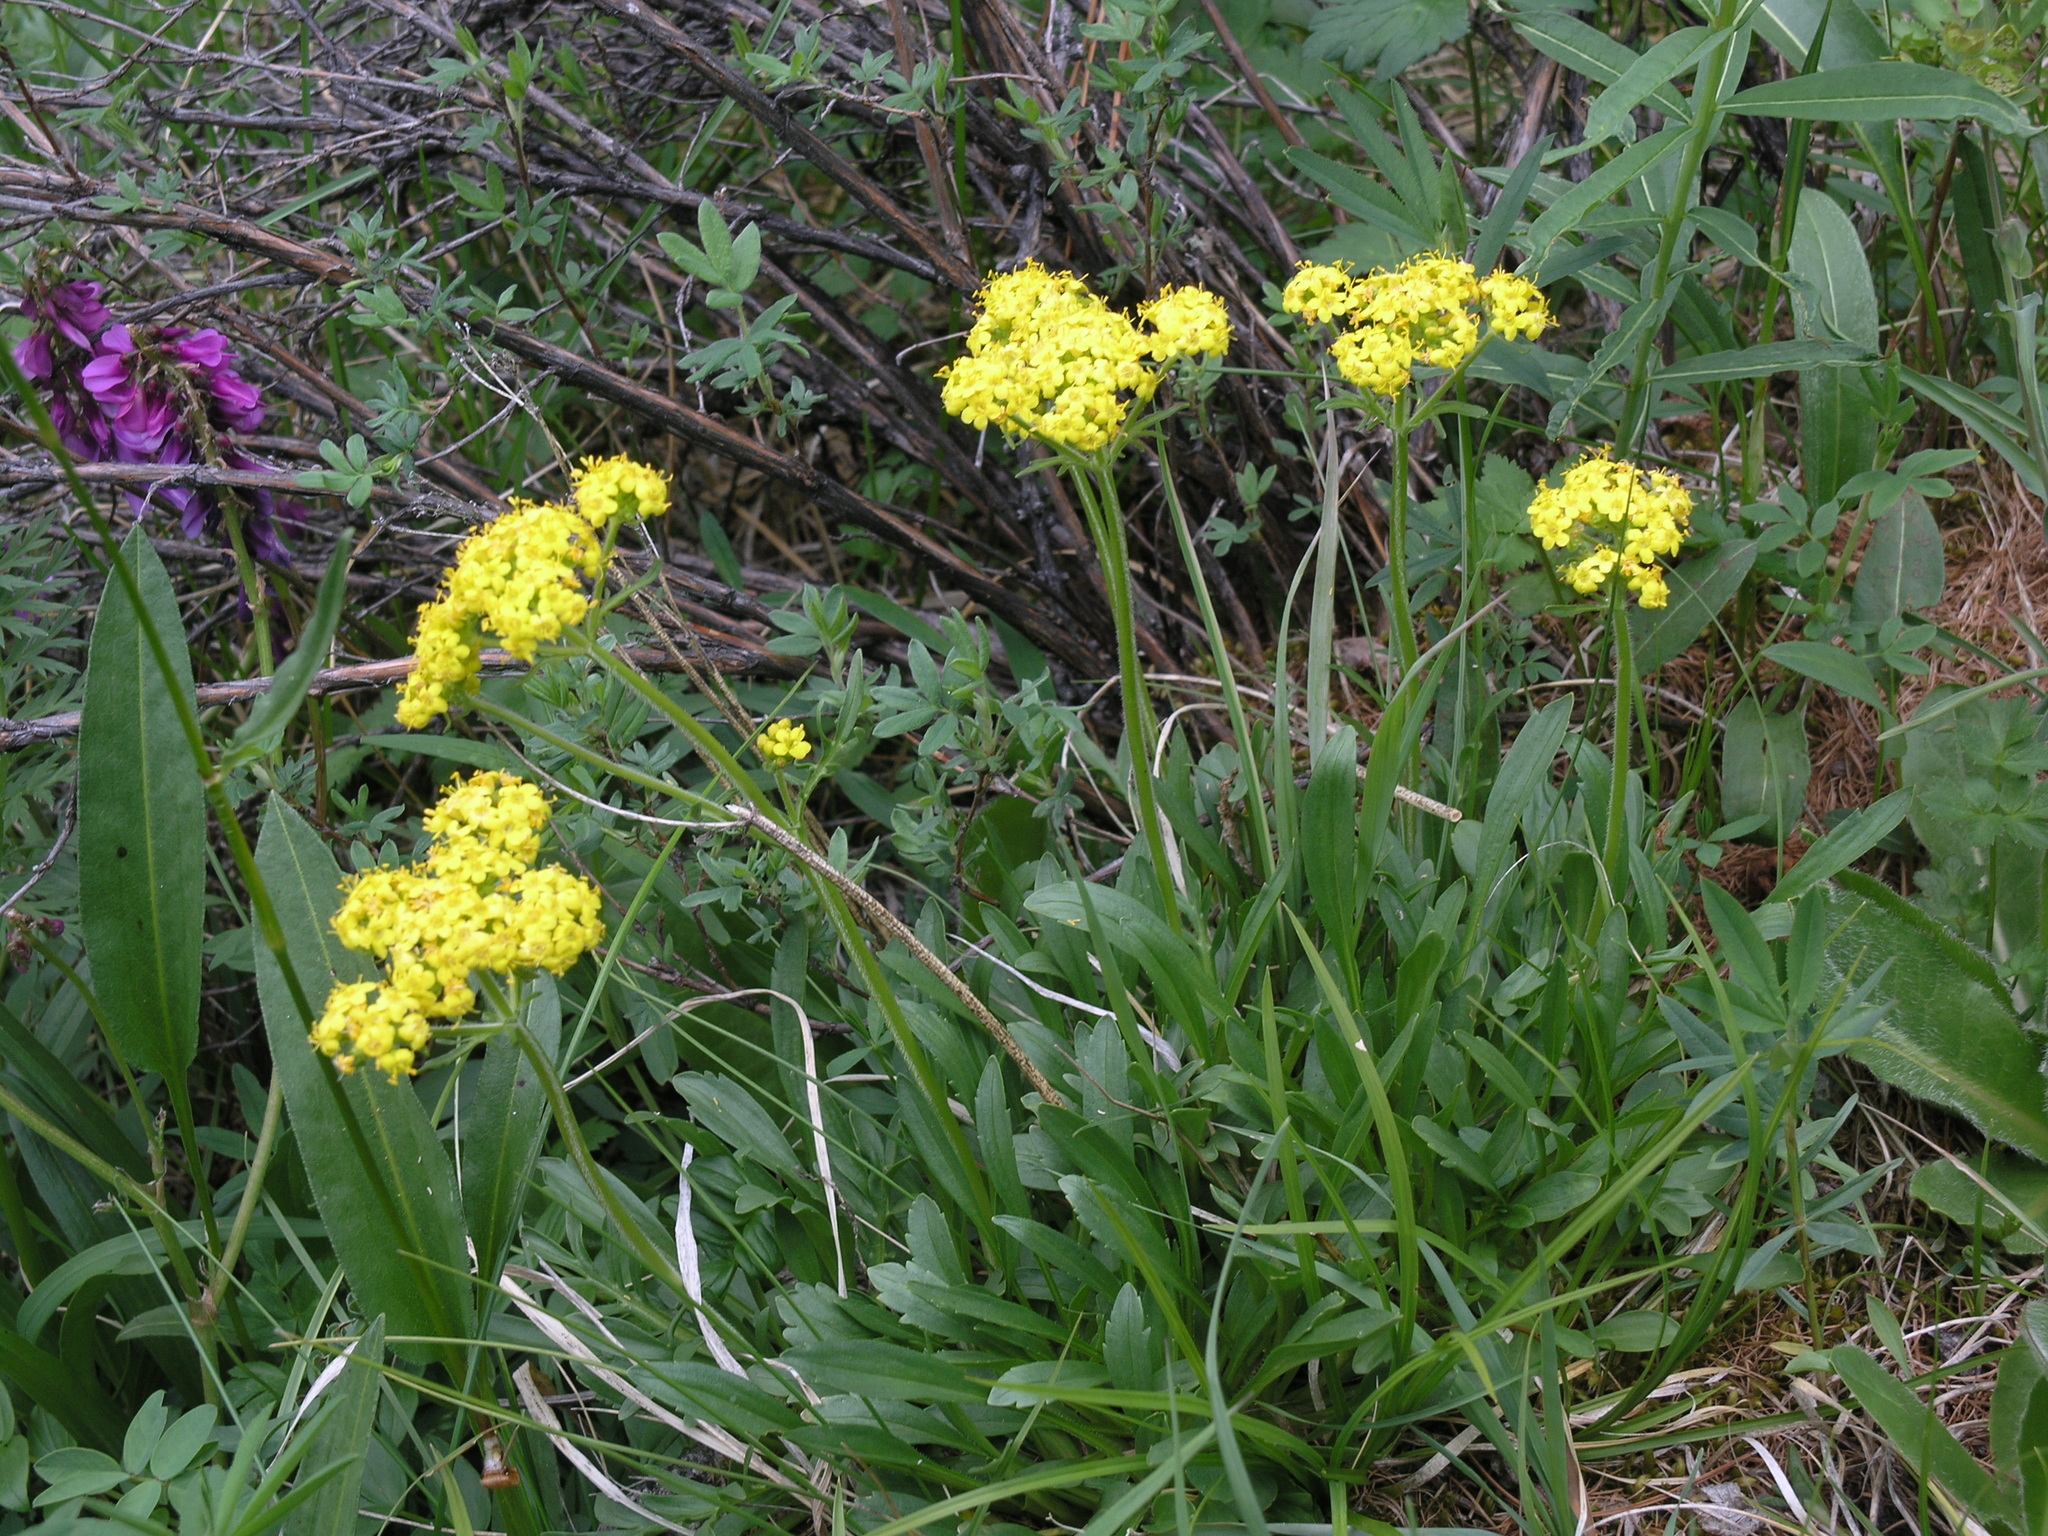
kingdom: Plantae
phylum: Tracheophyta
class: Magnoliopsida
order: Dipsacales
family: Caprifoliaceae
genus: Patrinia
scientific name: Patrinia sibirica
